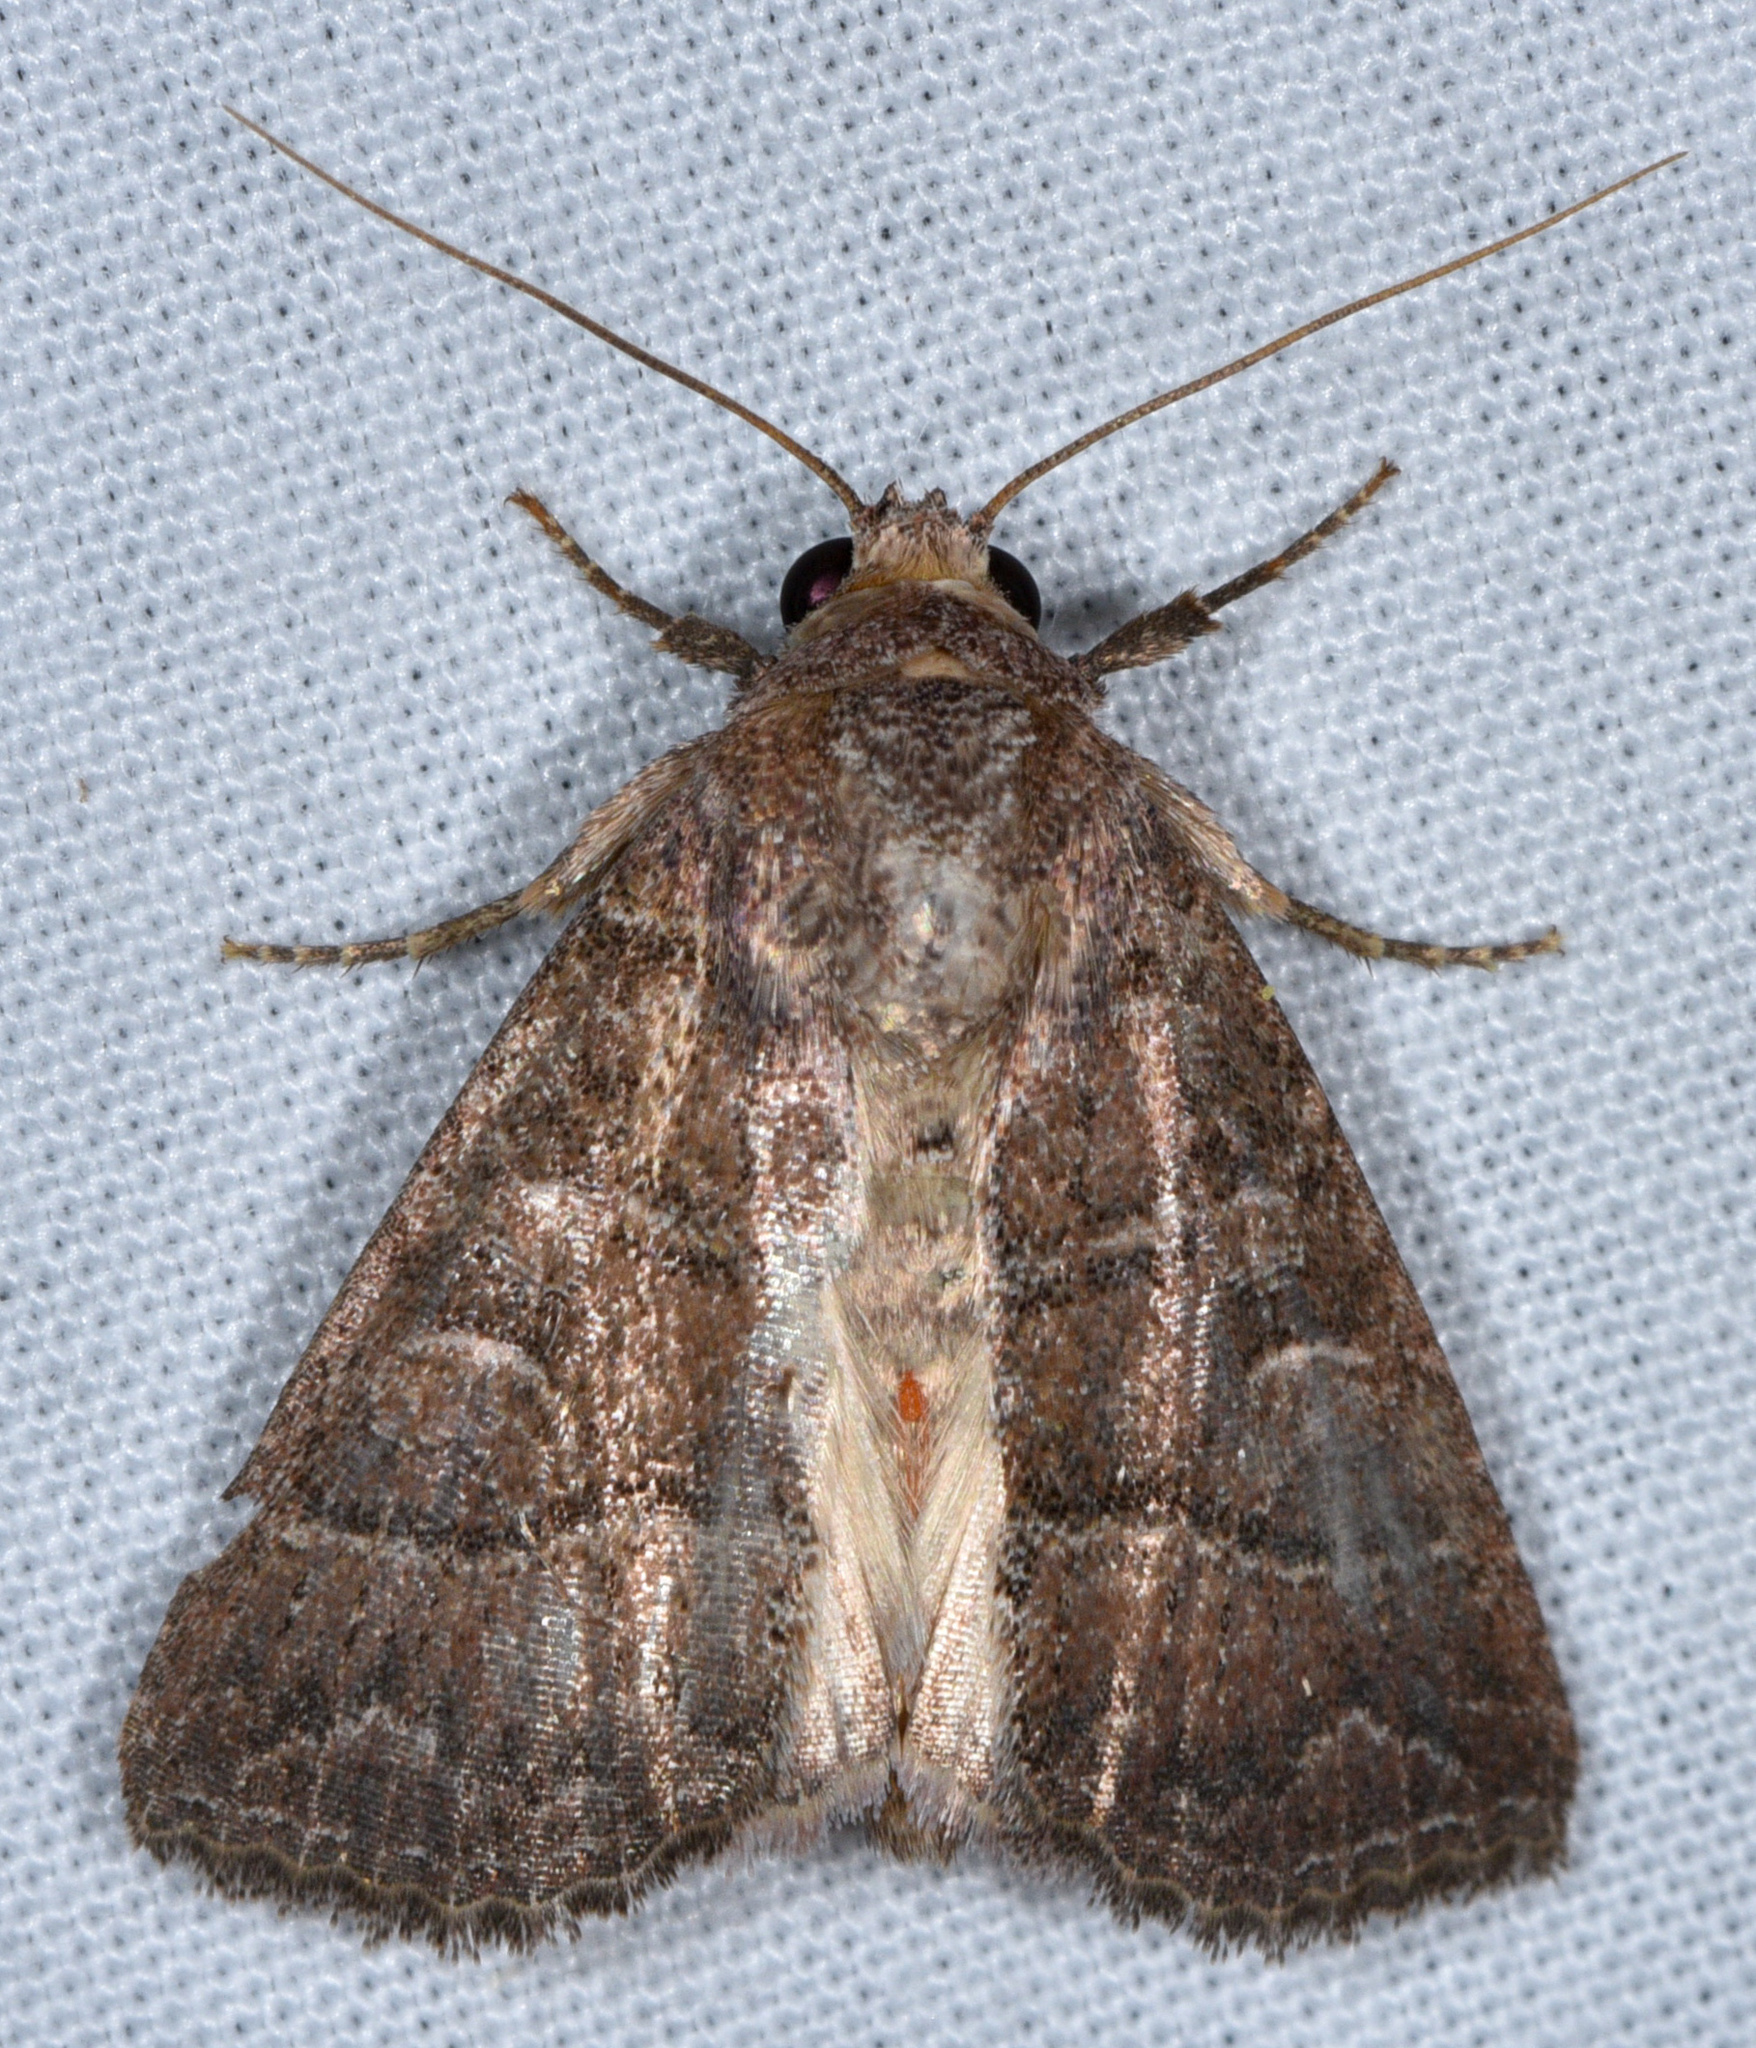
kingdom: Animalia
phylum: Arthropoda
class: Insecta
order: Lepidoptera
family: Noctuidae
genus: Perigea
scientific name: Perigea
